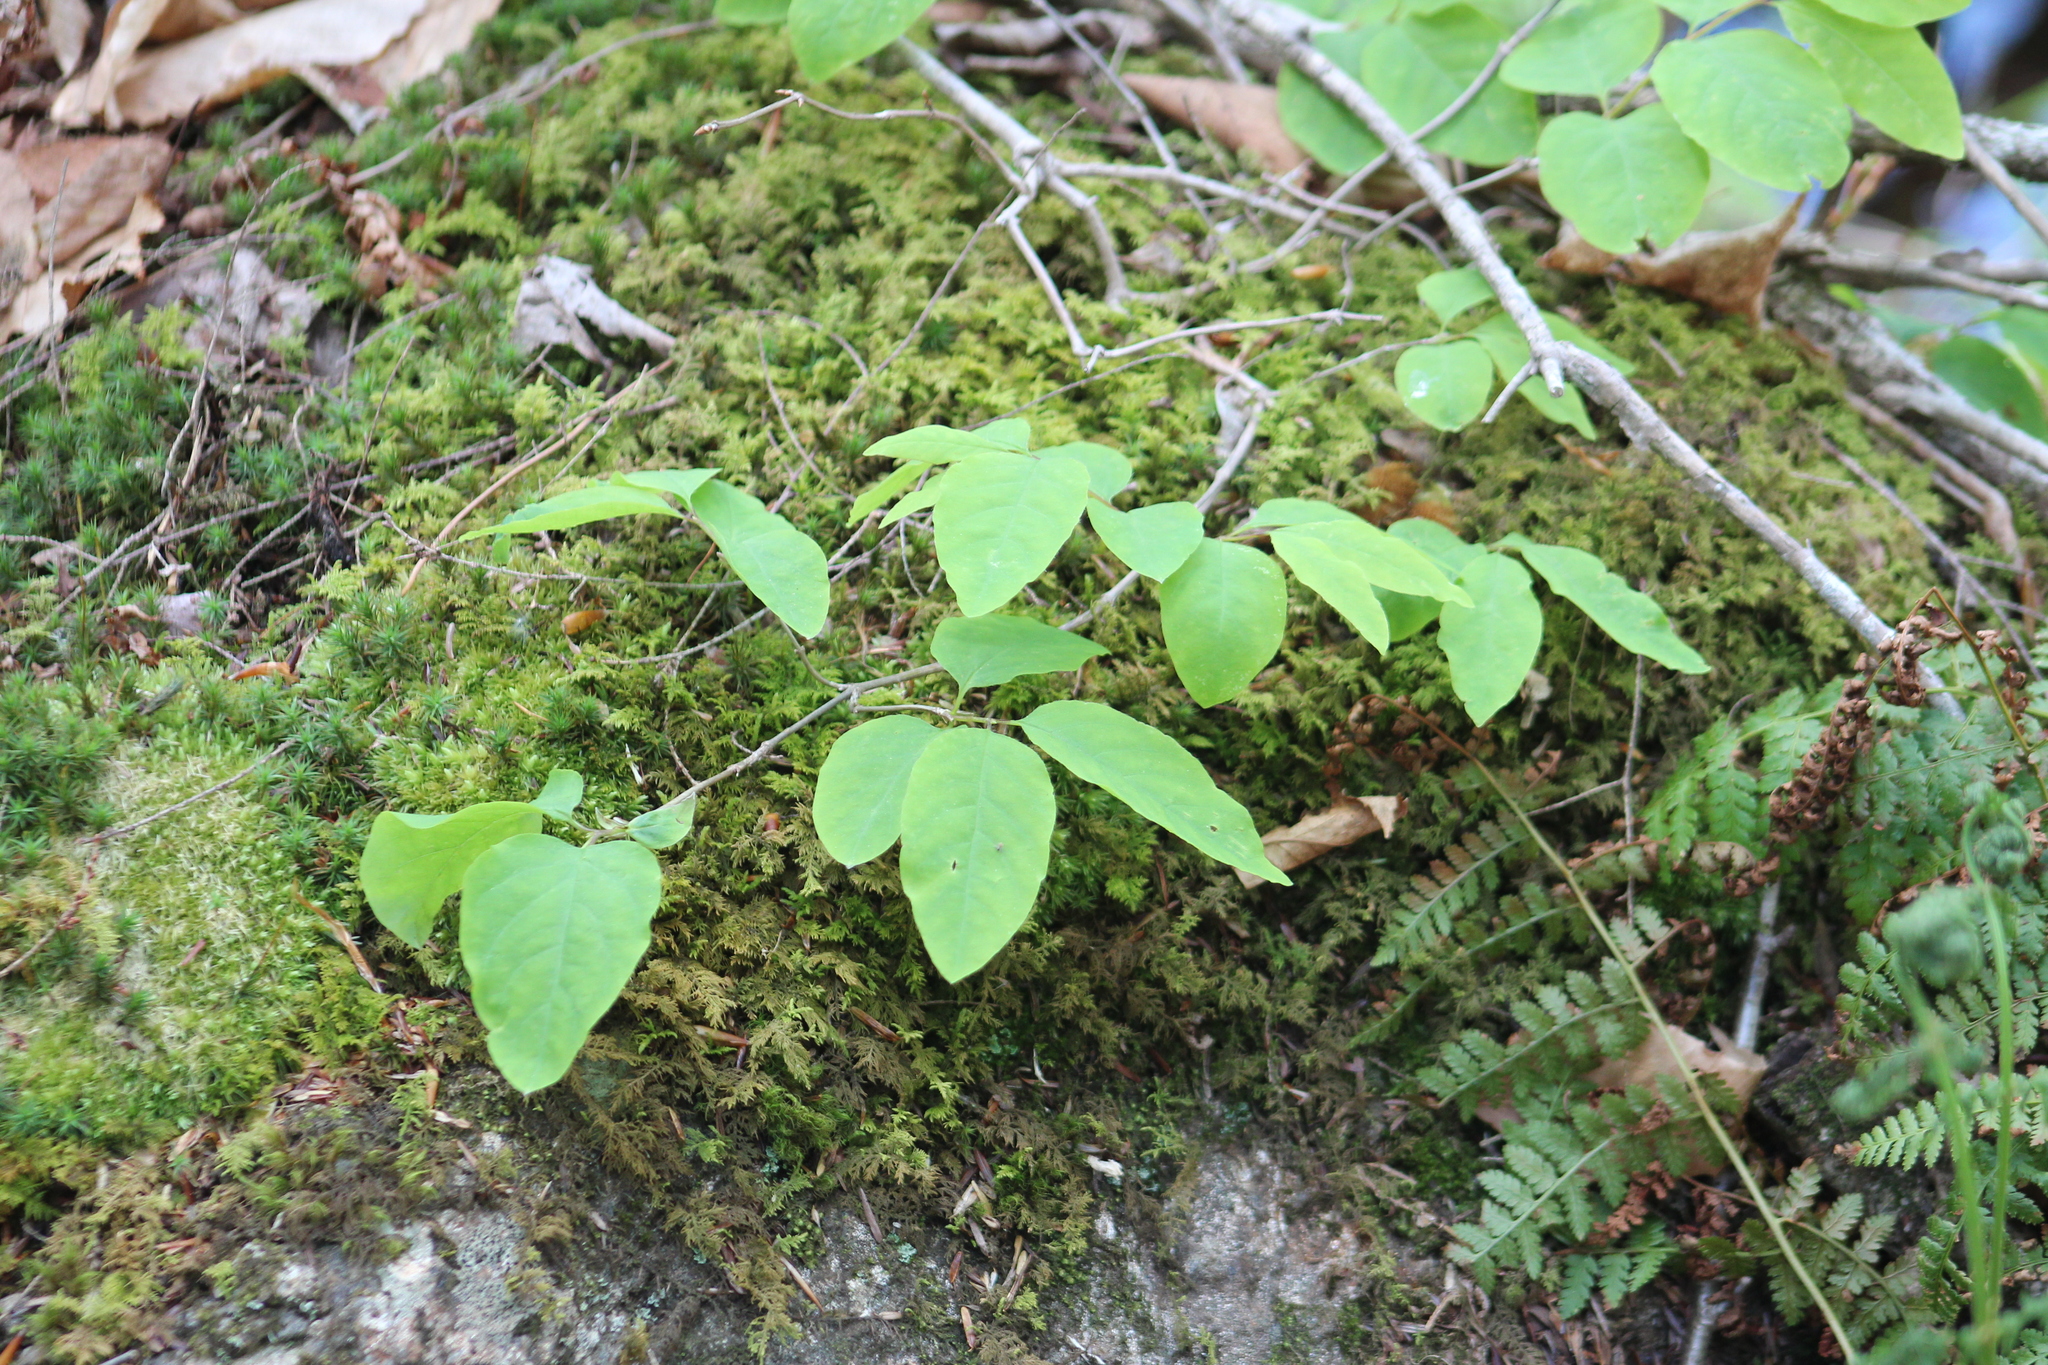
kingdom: Plantae
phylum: Tracheophyta
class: Magnoliopsida
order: Dipsacales
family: Caprifoliaceae
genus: Lonicera
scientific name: Lonicera canadensis
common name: American fly-honeysuckle
